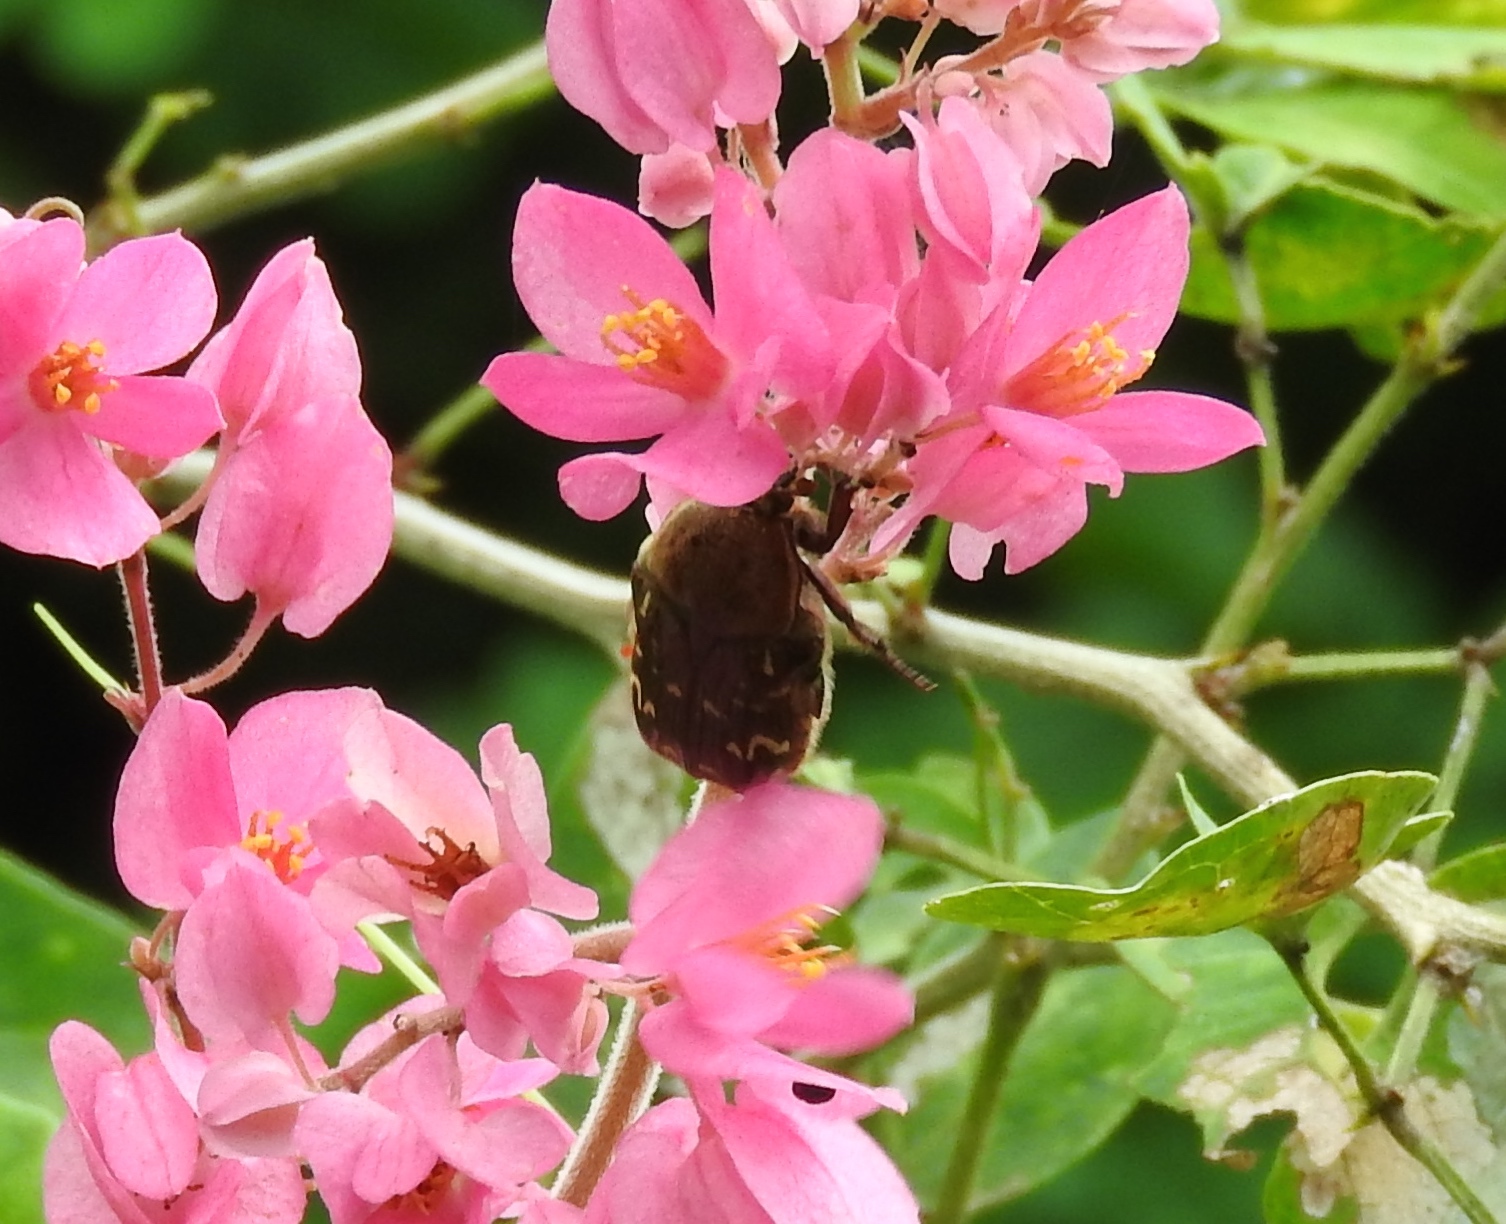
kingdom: Animalia
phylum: Arthropoda
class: Insecta
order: Coleoptera
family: Scarabaeidae
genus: Euphoria
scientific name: Euphoria leucographa
